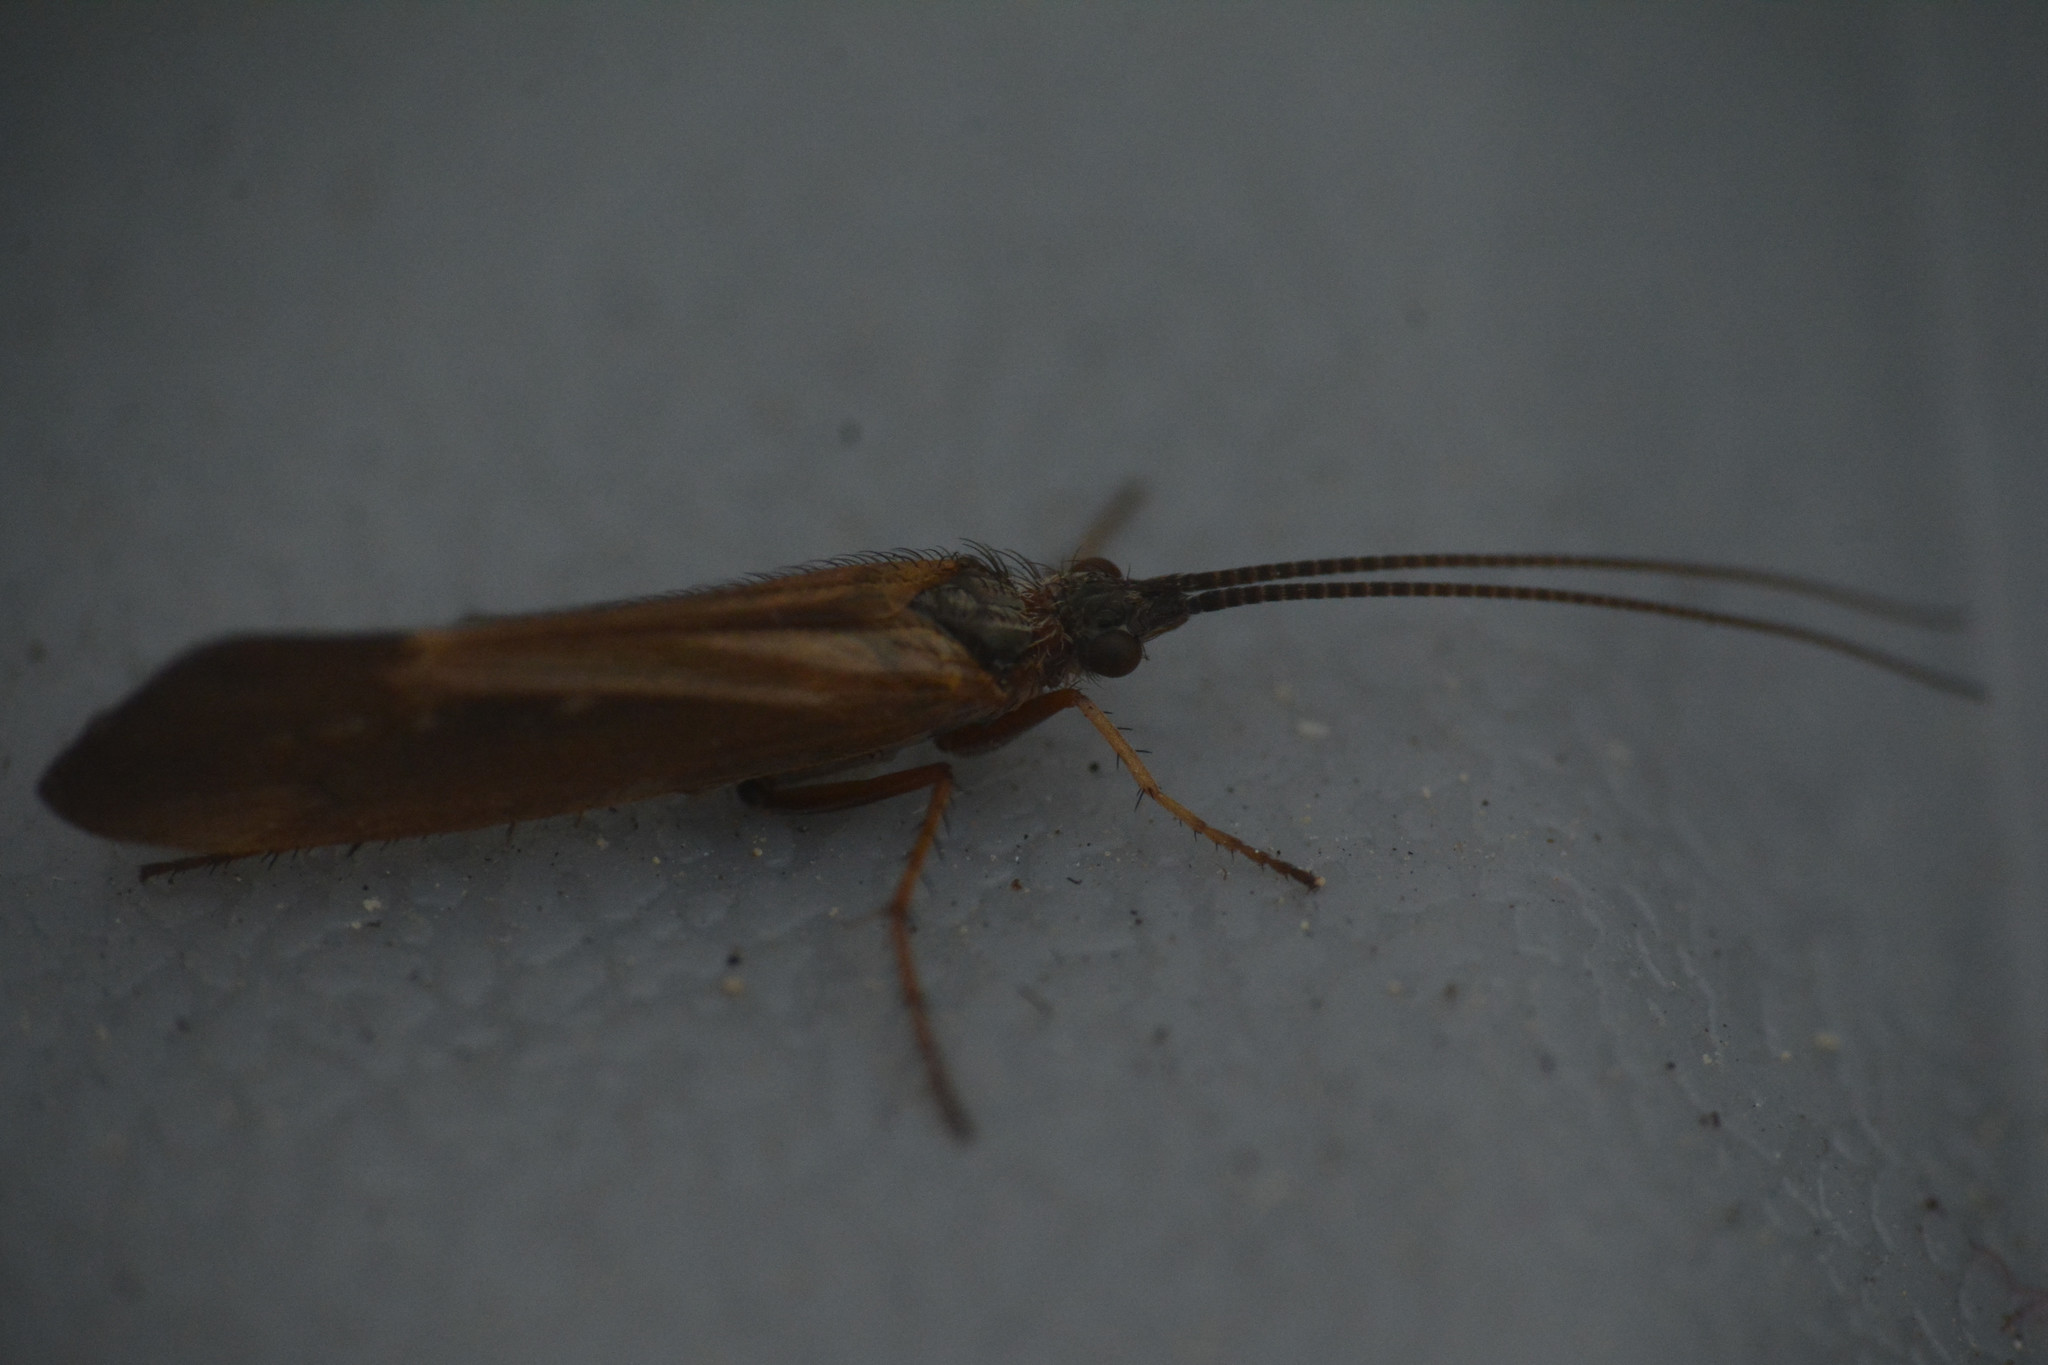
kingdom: Animalia
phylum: Arthropoda
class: Insecta
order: Trichoptera
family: Limnephilidae
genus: Limnephilus
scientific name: Limnephilus auricula
